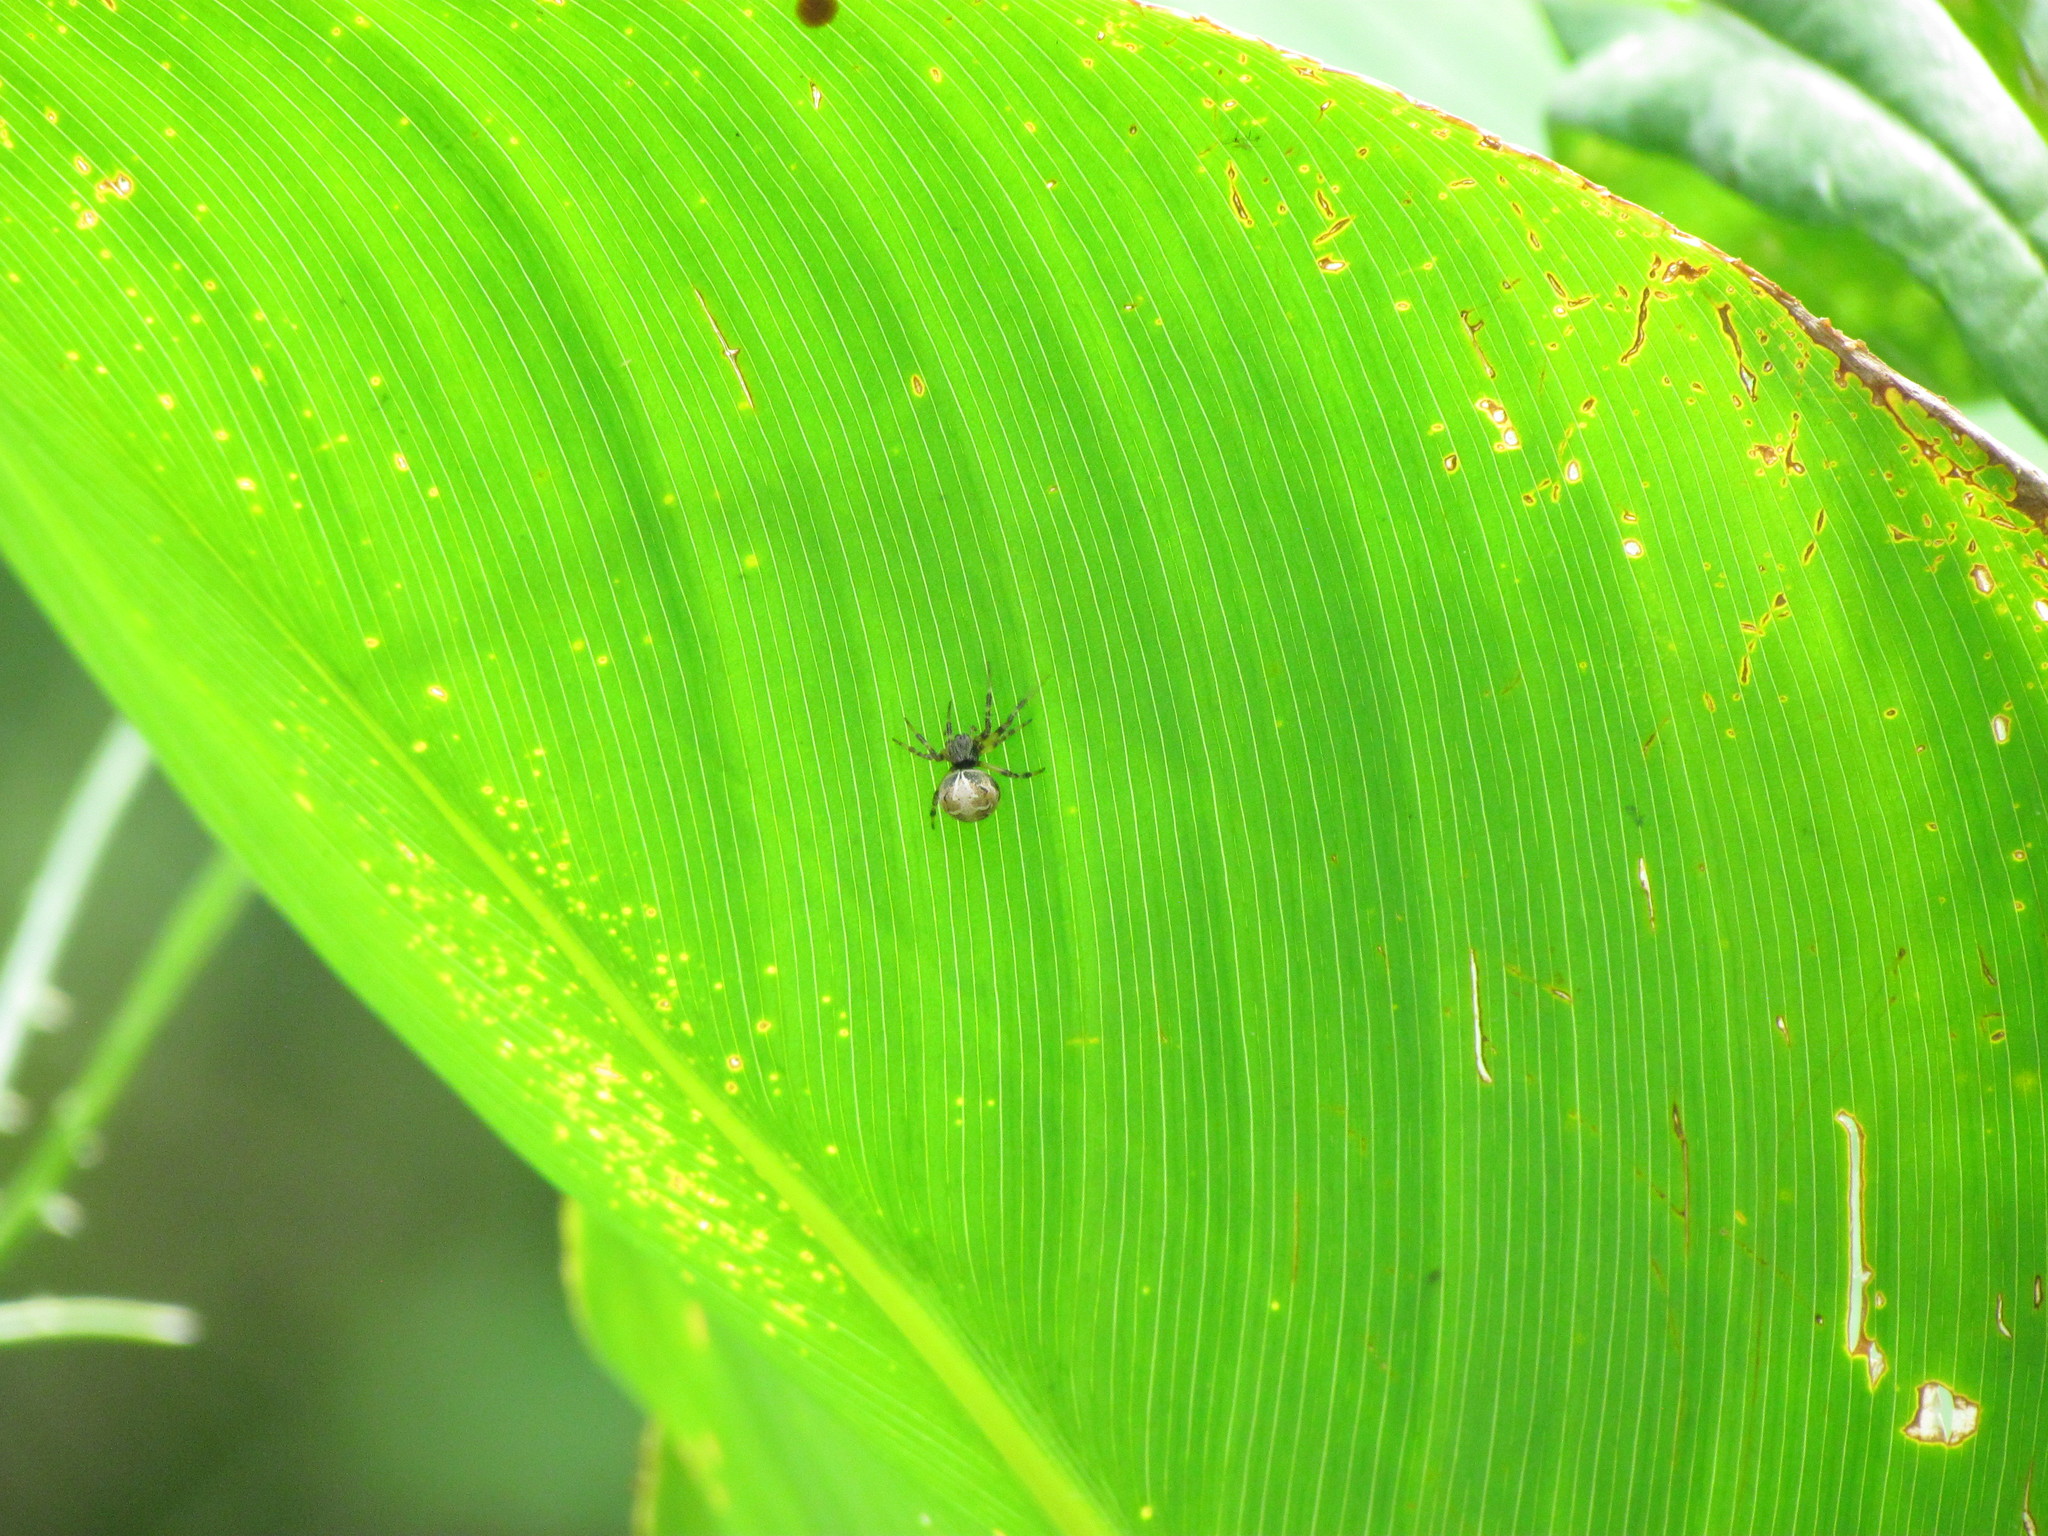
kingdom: Animalia
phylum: Arthropoda
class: Arachnida
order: Araneae
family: Araneidae
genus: Metepeira
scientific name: Metepeira
